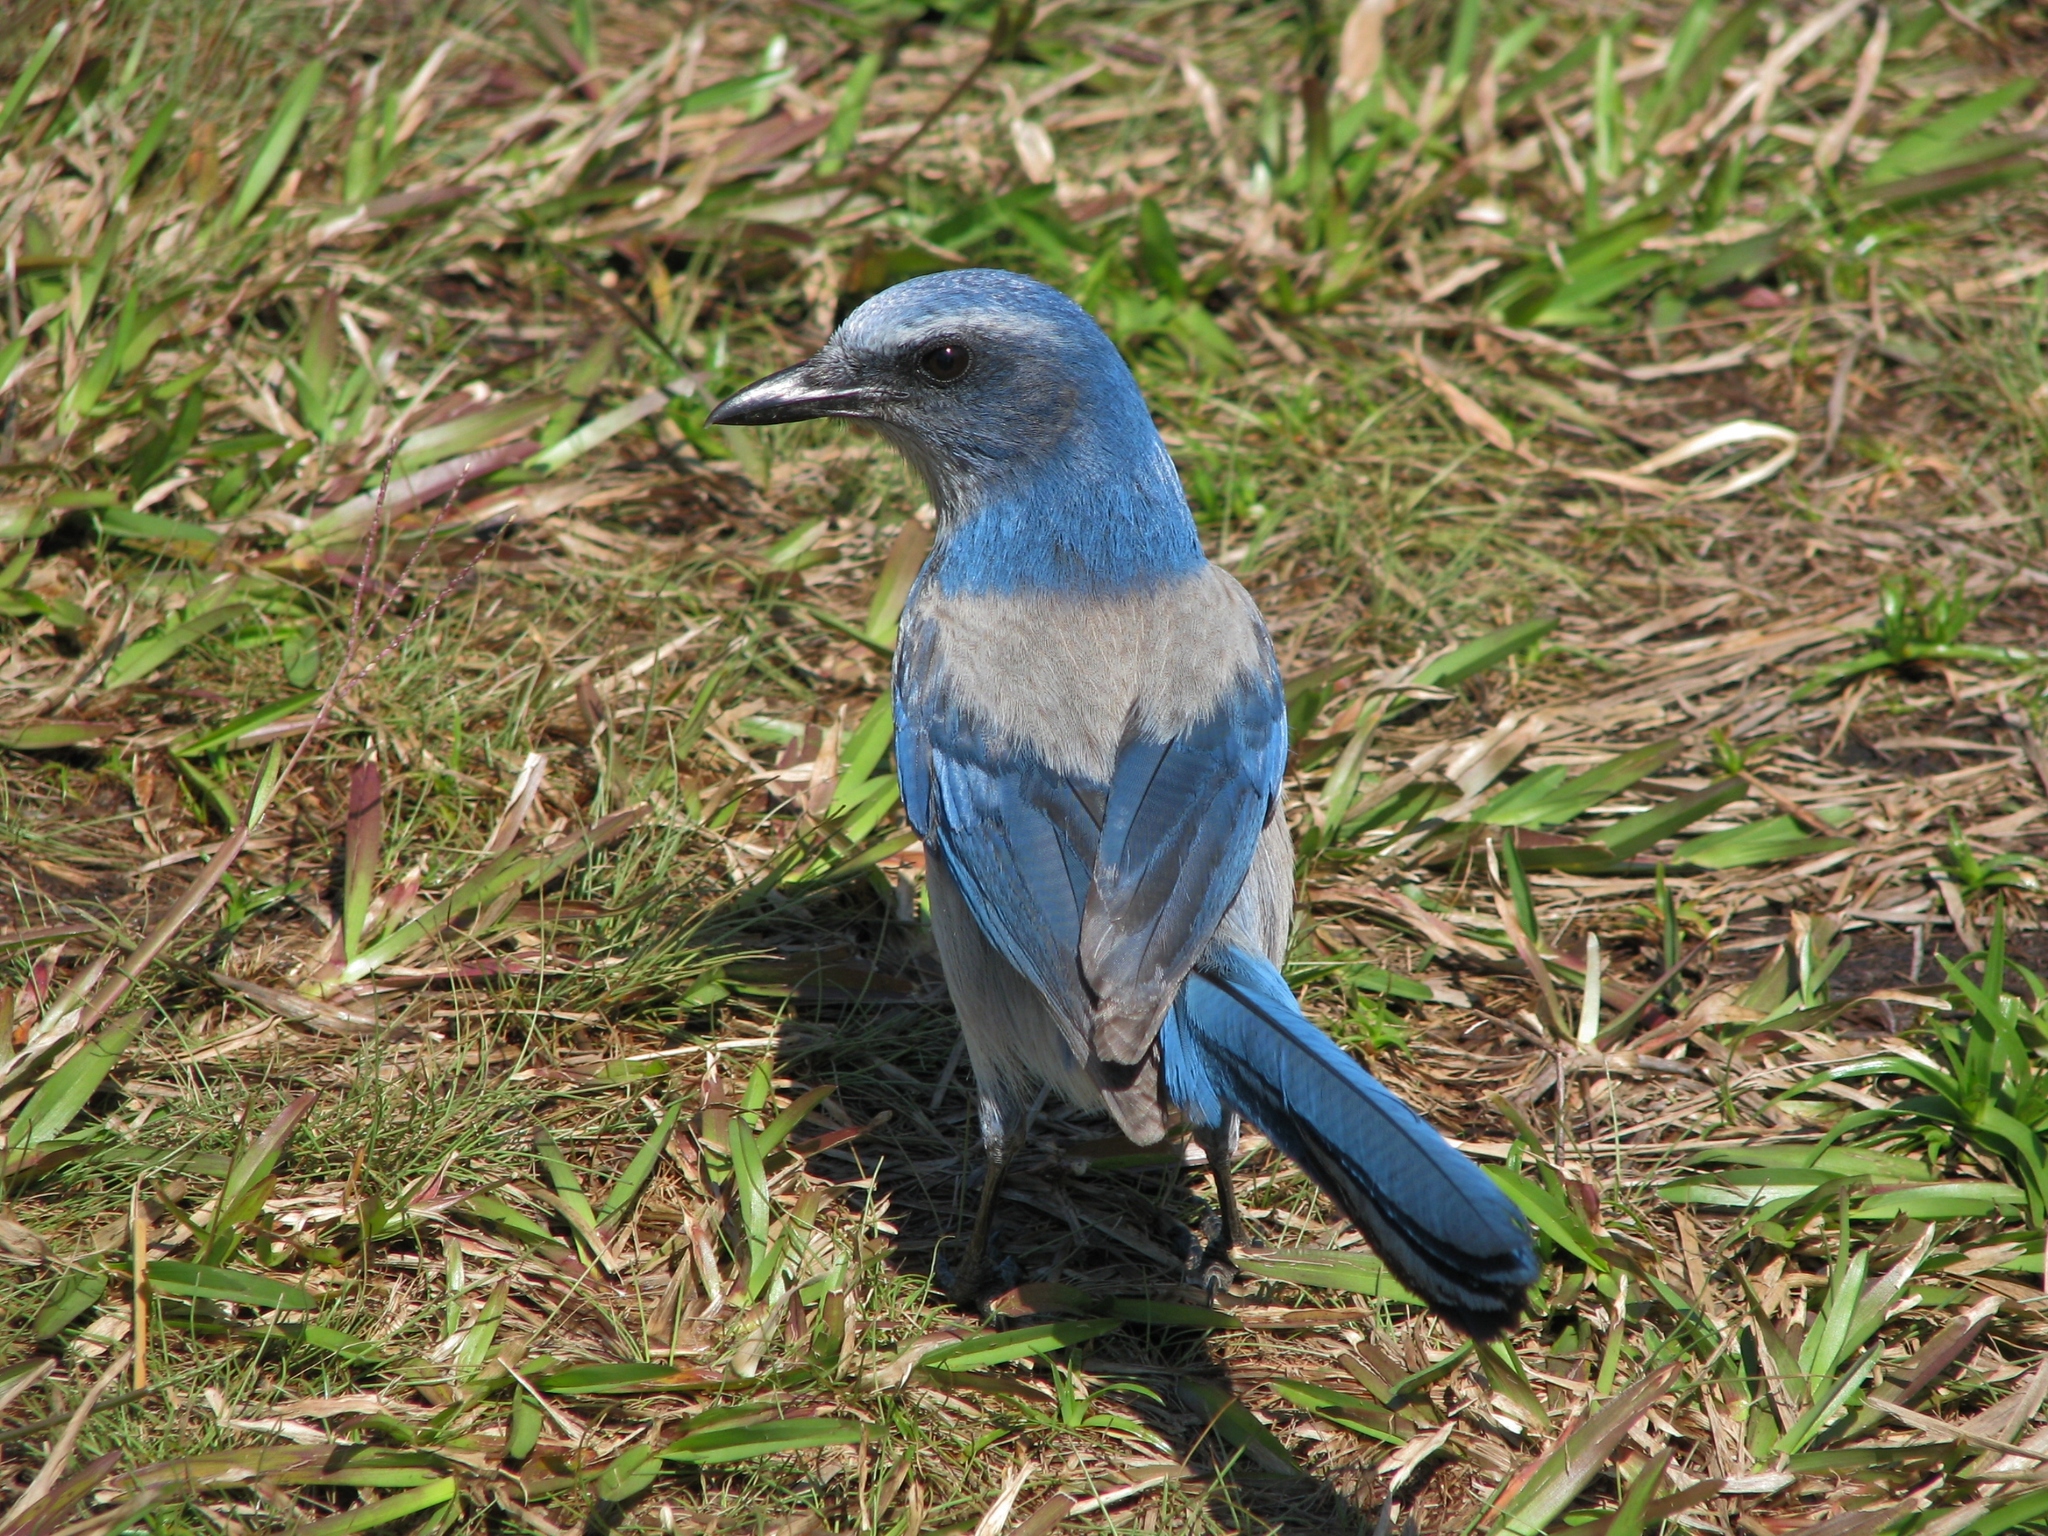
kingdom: Animalia
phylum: Chordata
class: Aves
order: Passeriformes
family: Corvidae
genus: Aphelocoma
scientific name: Aphelocoma coerulescens
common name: Florida scrub jay
